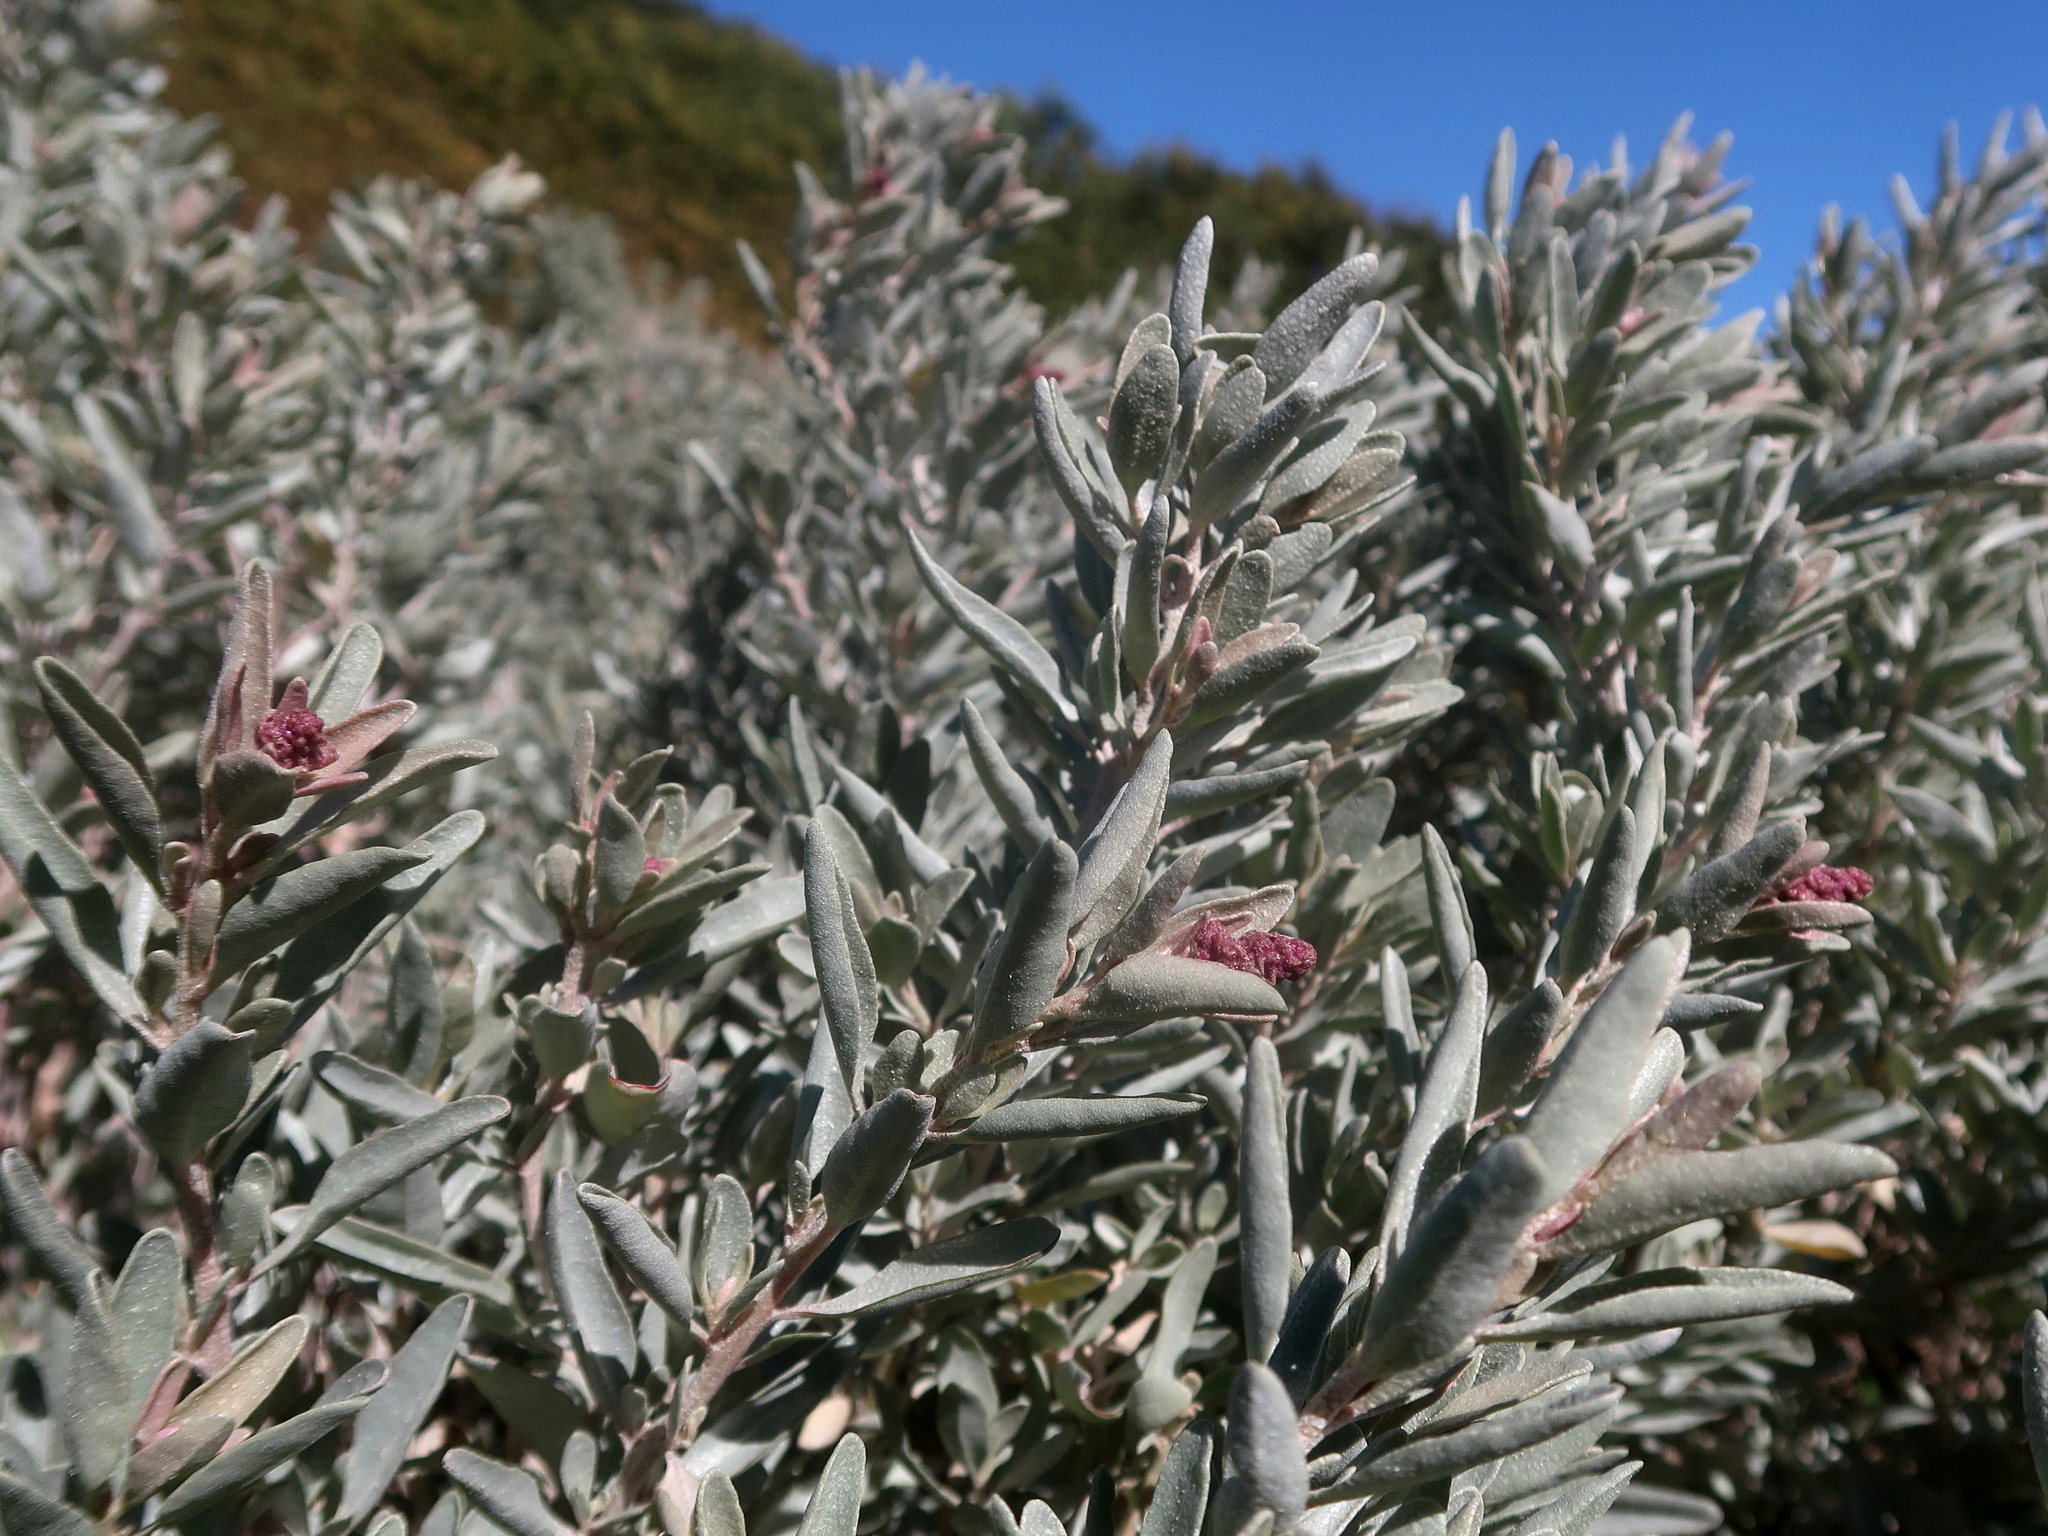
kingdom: Plantae
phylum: Tracheophyta
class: Magnoliopsida
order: Caryophyllales
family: Amaranthaceae
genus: Atriplex
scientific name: Atriplex cinerea
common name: Grey saltbush
